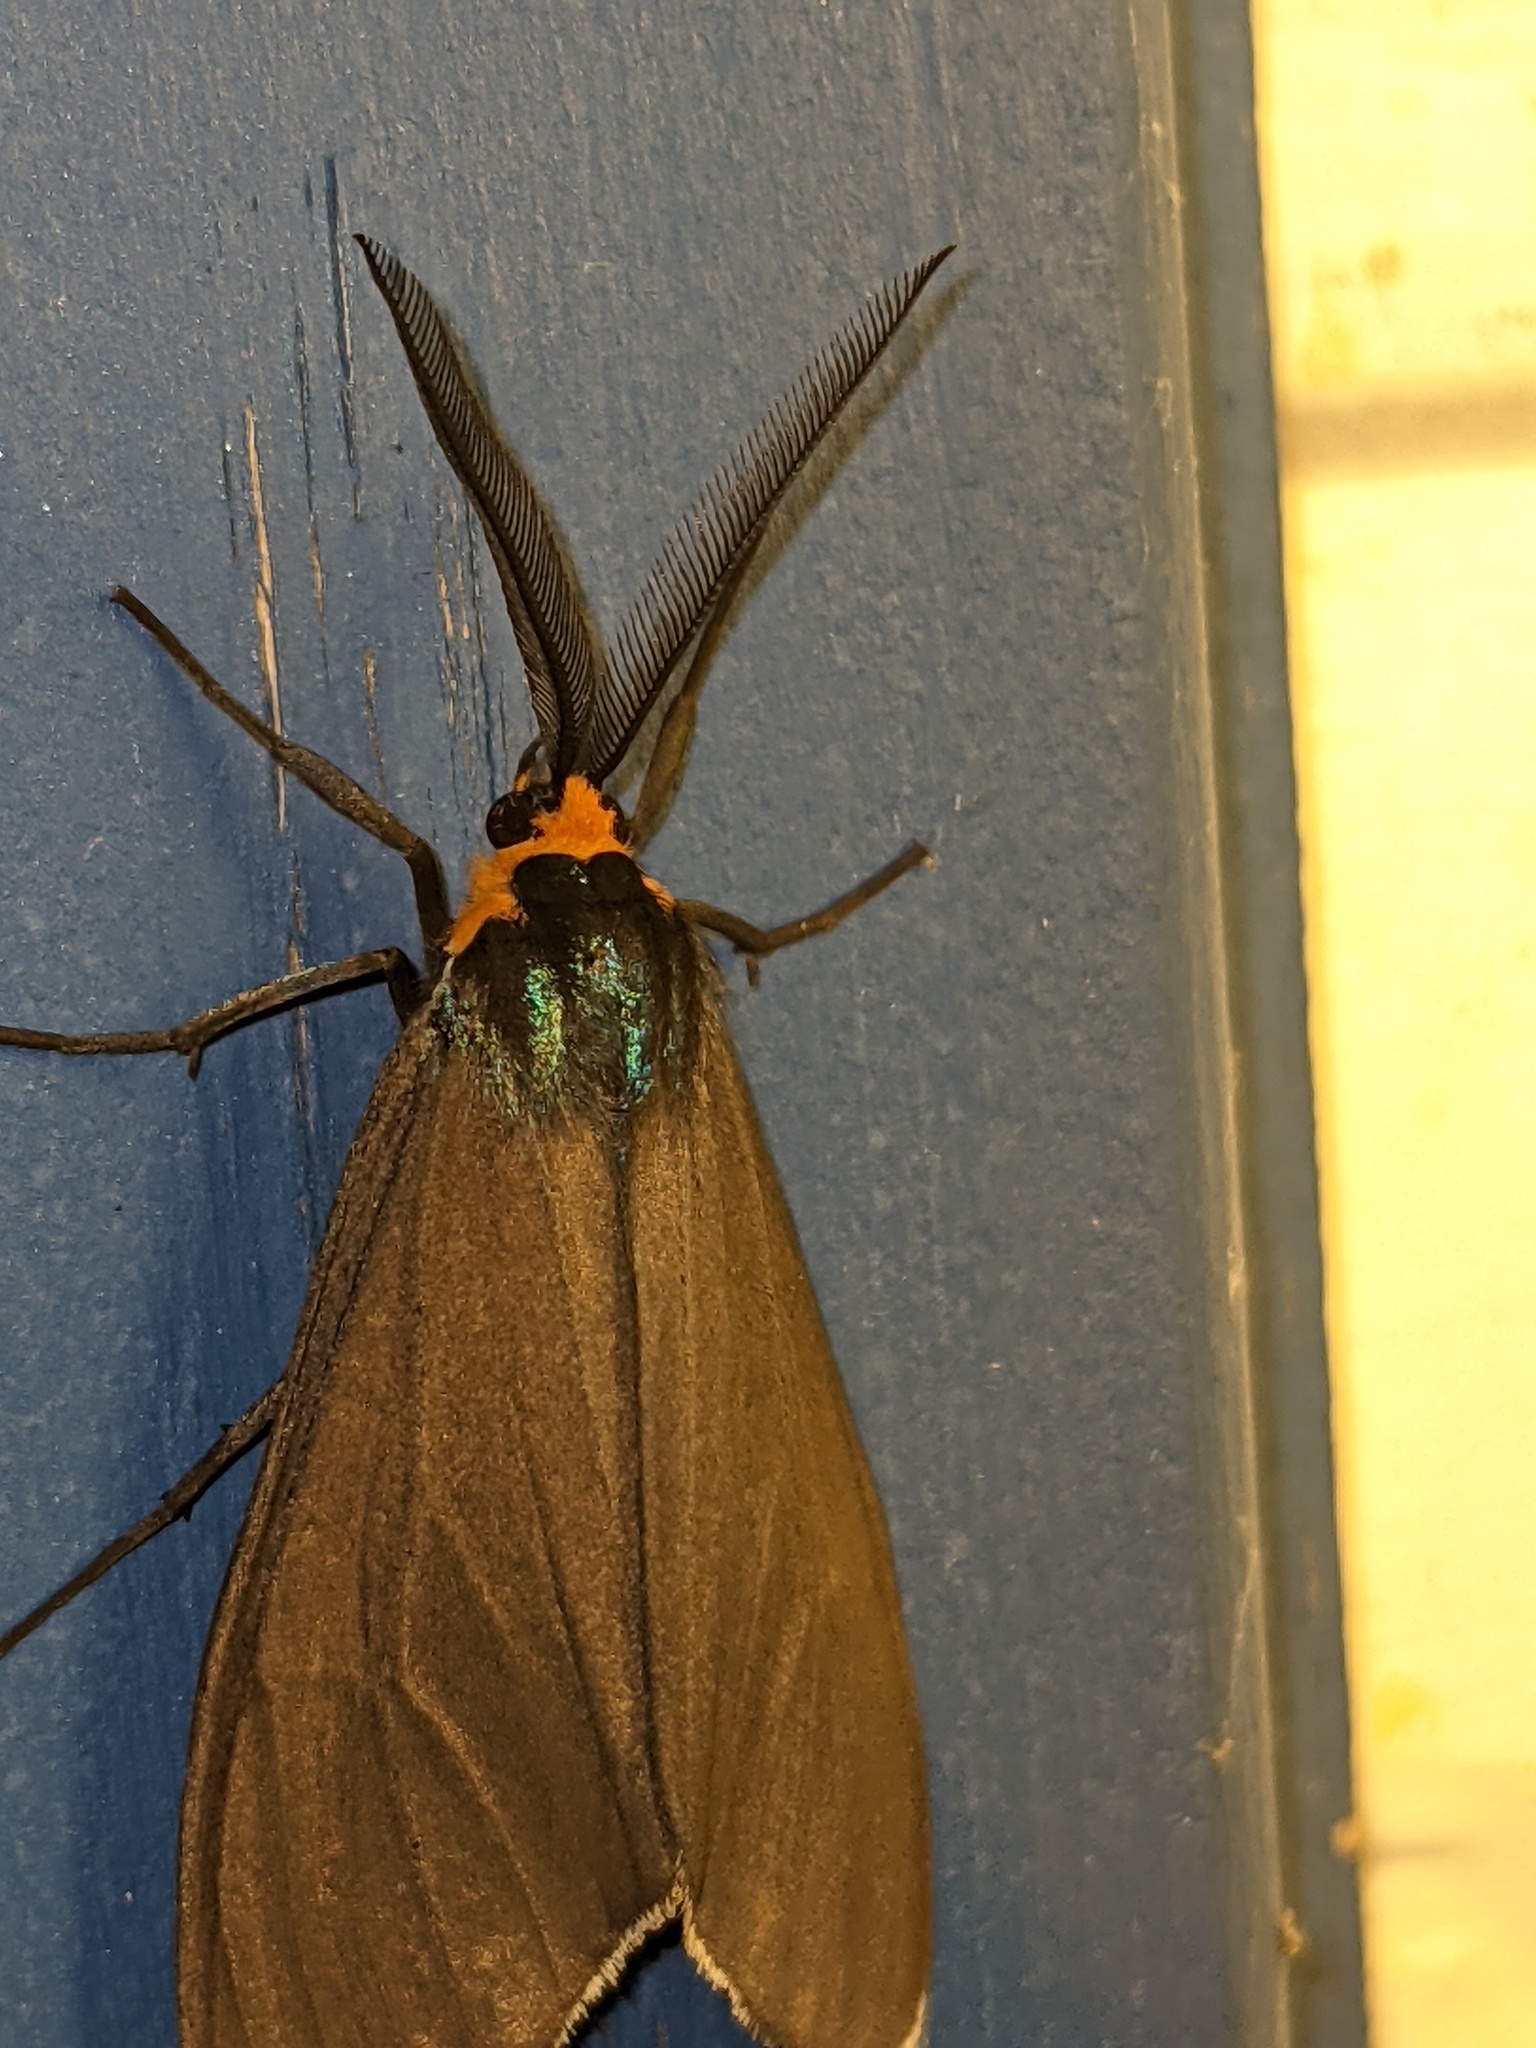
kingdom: Animalia
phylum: Arthropoda
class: Insecta
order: Lepidoptera
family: Erebidae
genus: Ctenucha
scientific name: Ctenucha virginica
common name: Virginia ctenucha moth
